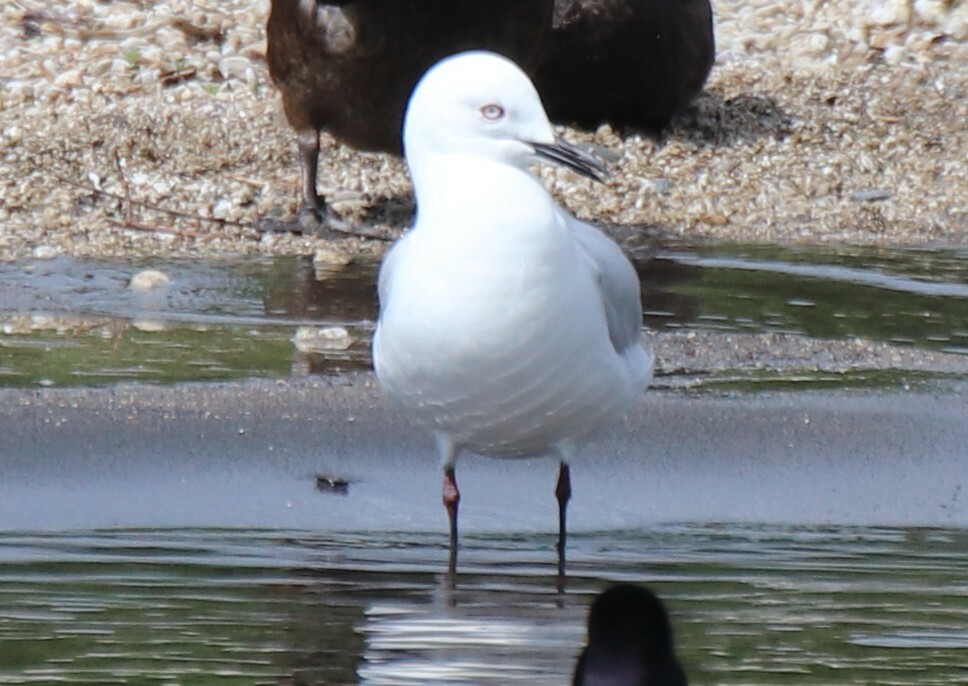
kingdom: Animalia
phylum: Chordata
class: Aves
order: Charadriiformes
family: Laridae
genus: Chroicocephalus
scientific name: Chroicocephalus bulleri
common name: Black-billed gull
